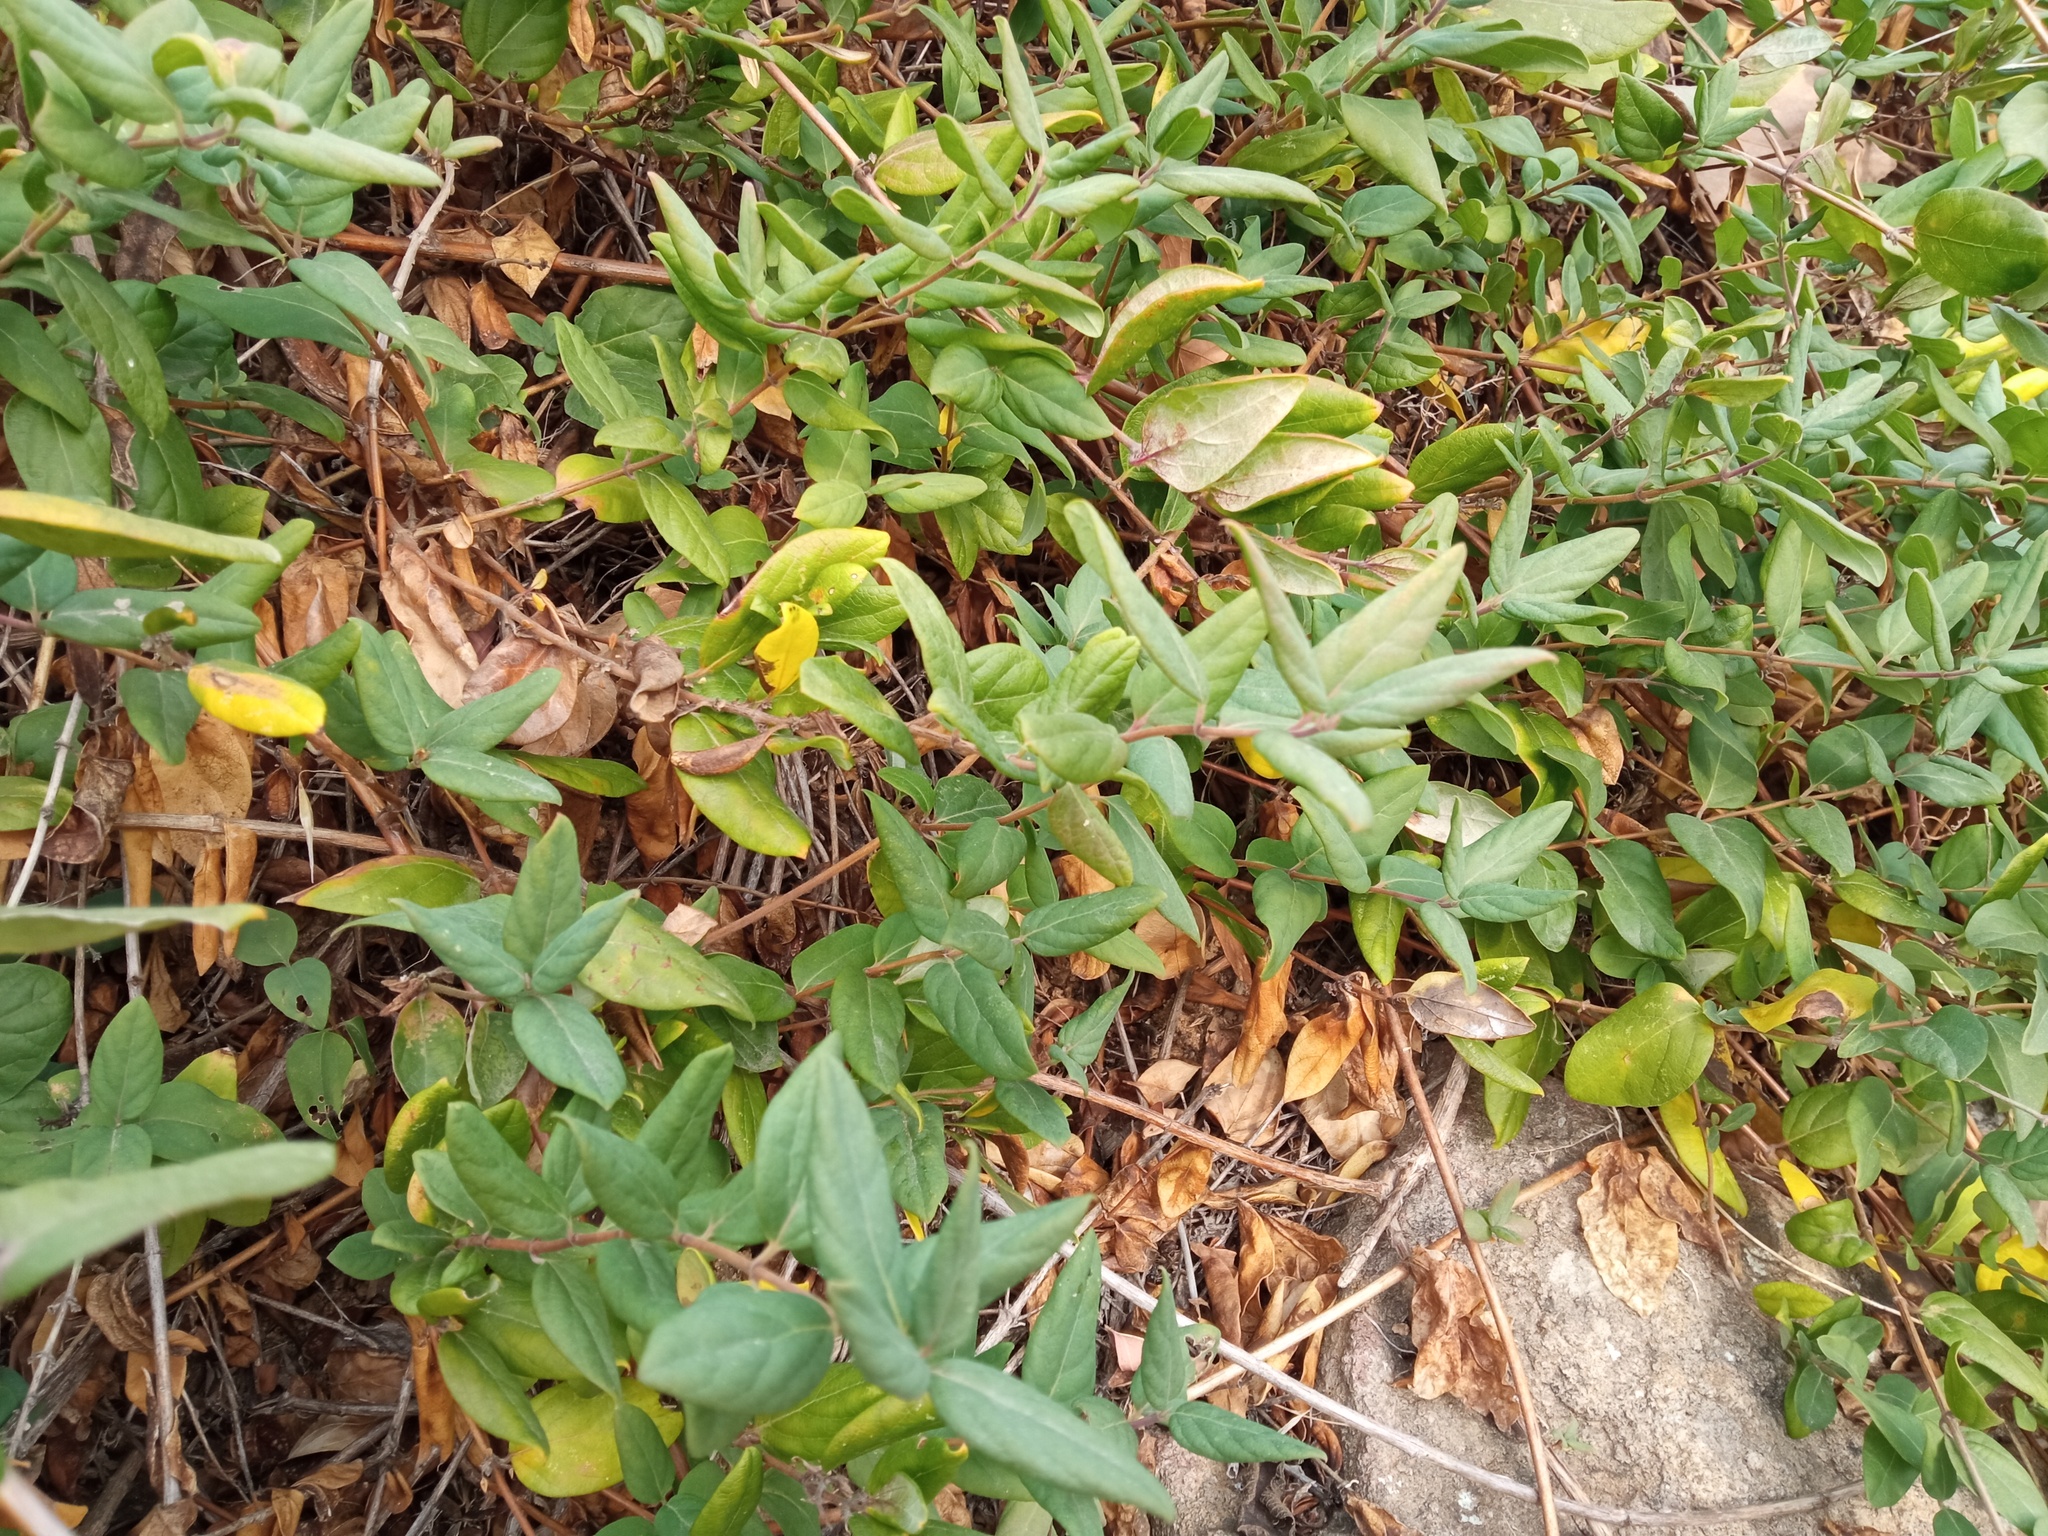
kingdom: Plantae
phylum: Tracheophyta
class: Magnoliopsida
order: Dipsacales
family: Caprifoliaceae
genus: Lonicera
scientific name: Lonicera japonica
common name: Japanese honeysuckle
